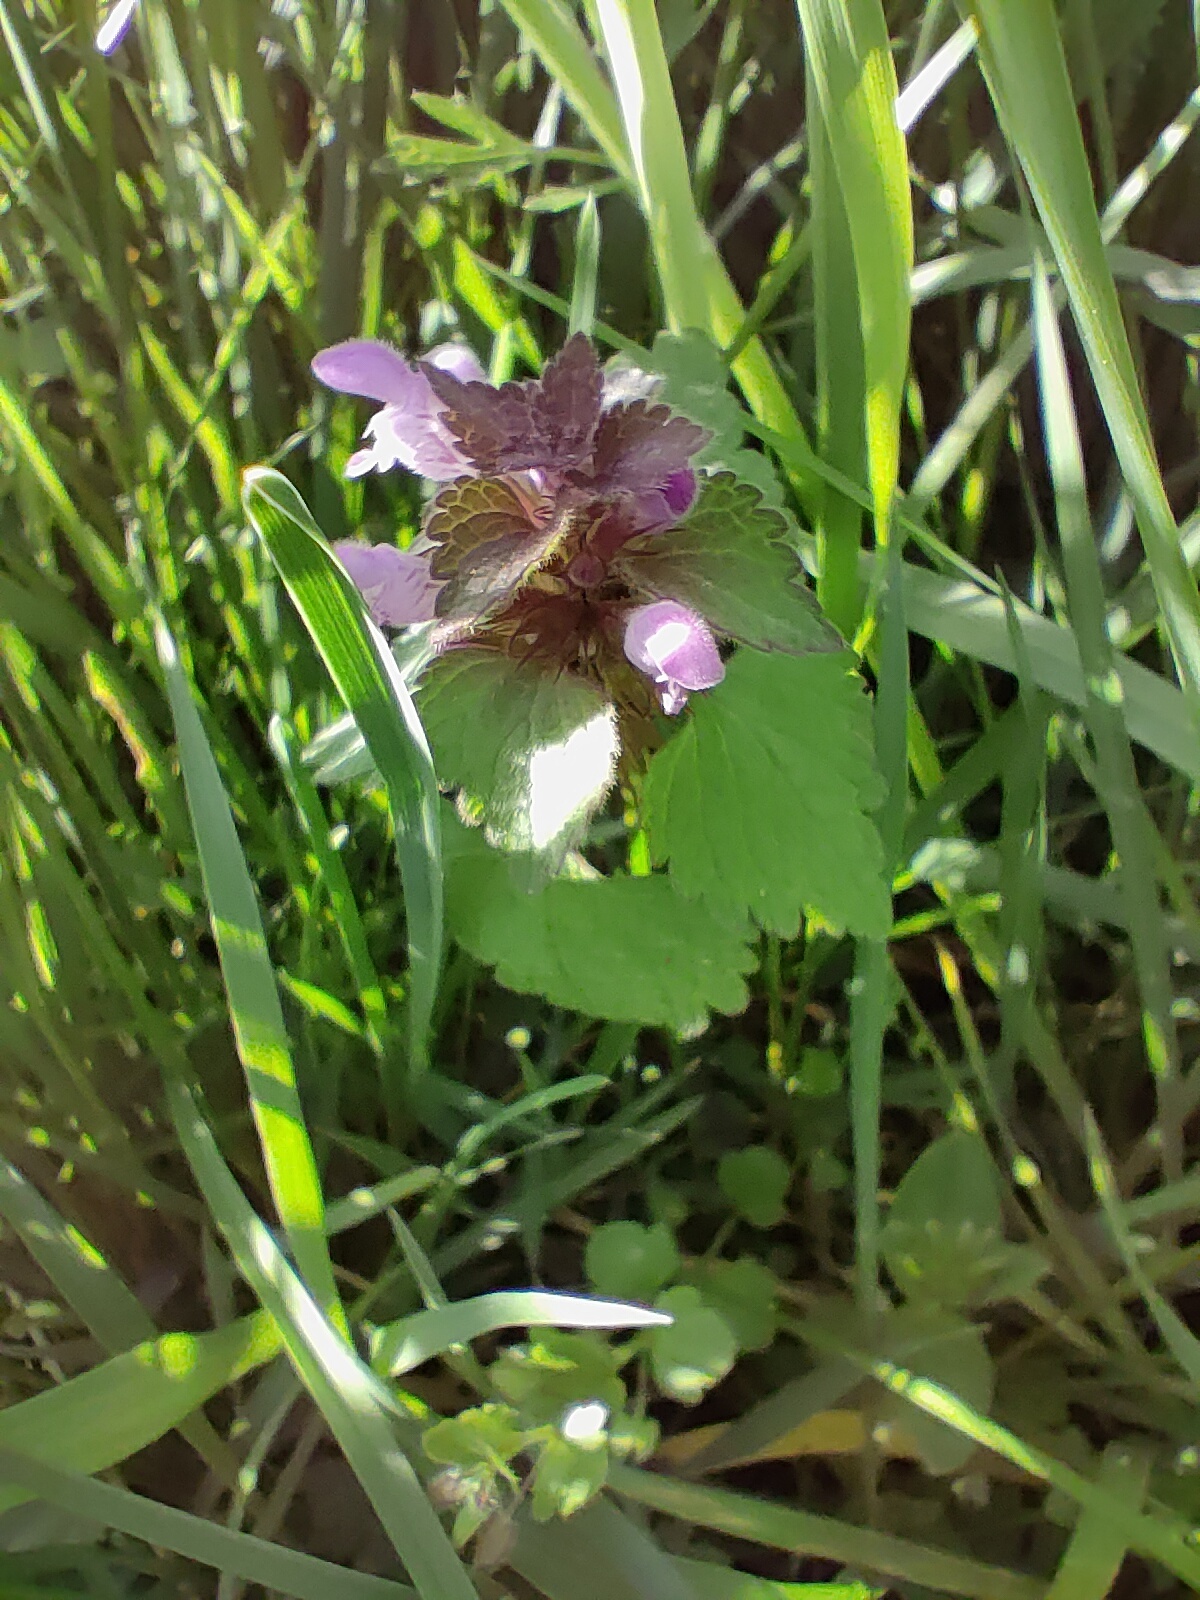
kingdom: Plantae
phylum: Tracheophyta
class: Magnoliopsida
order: Lamiales
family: Lamiaceae
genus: Lamium
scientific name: Lamium purpureum
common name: Red dead-nettle
